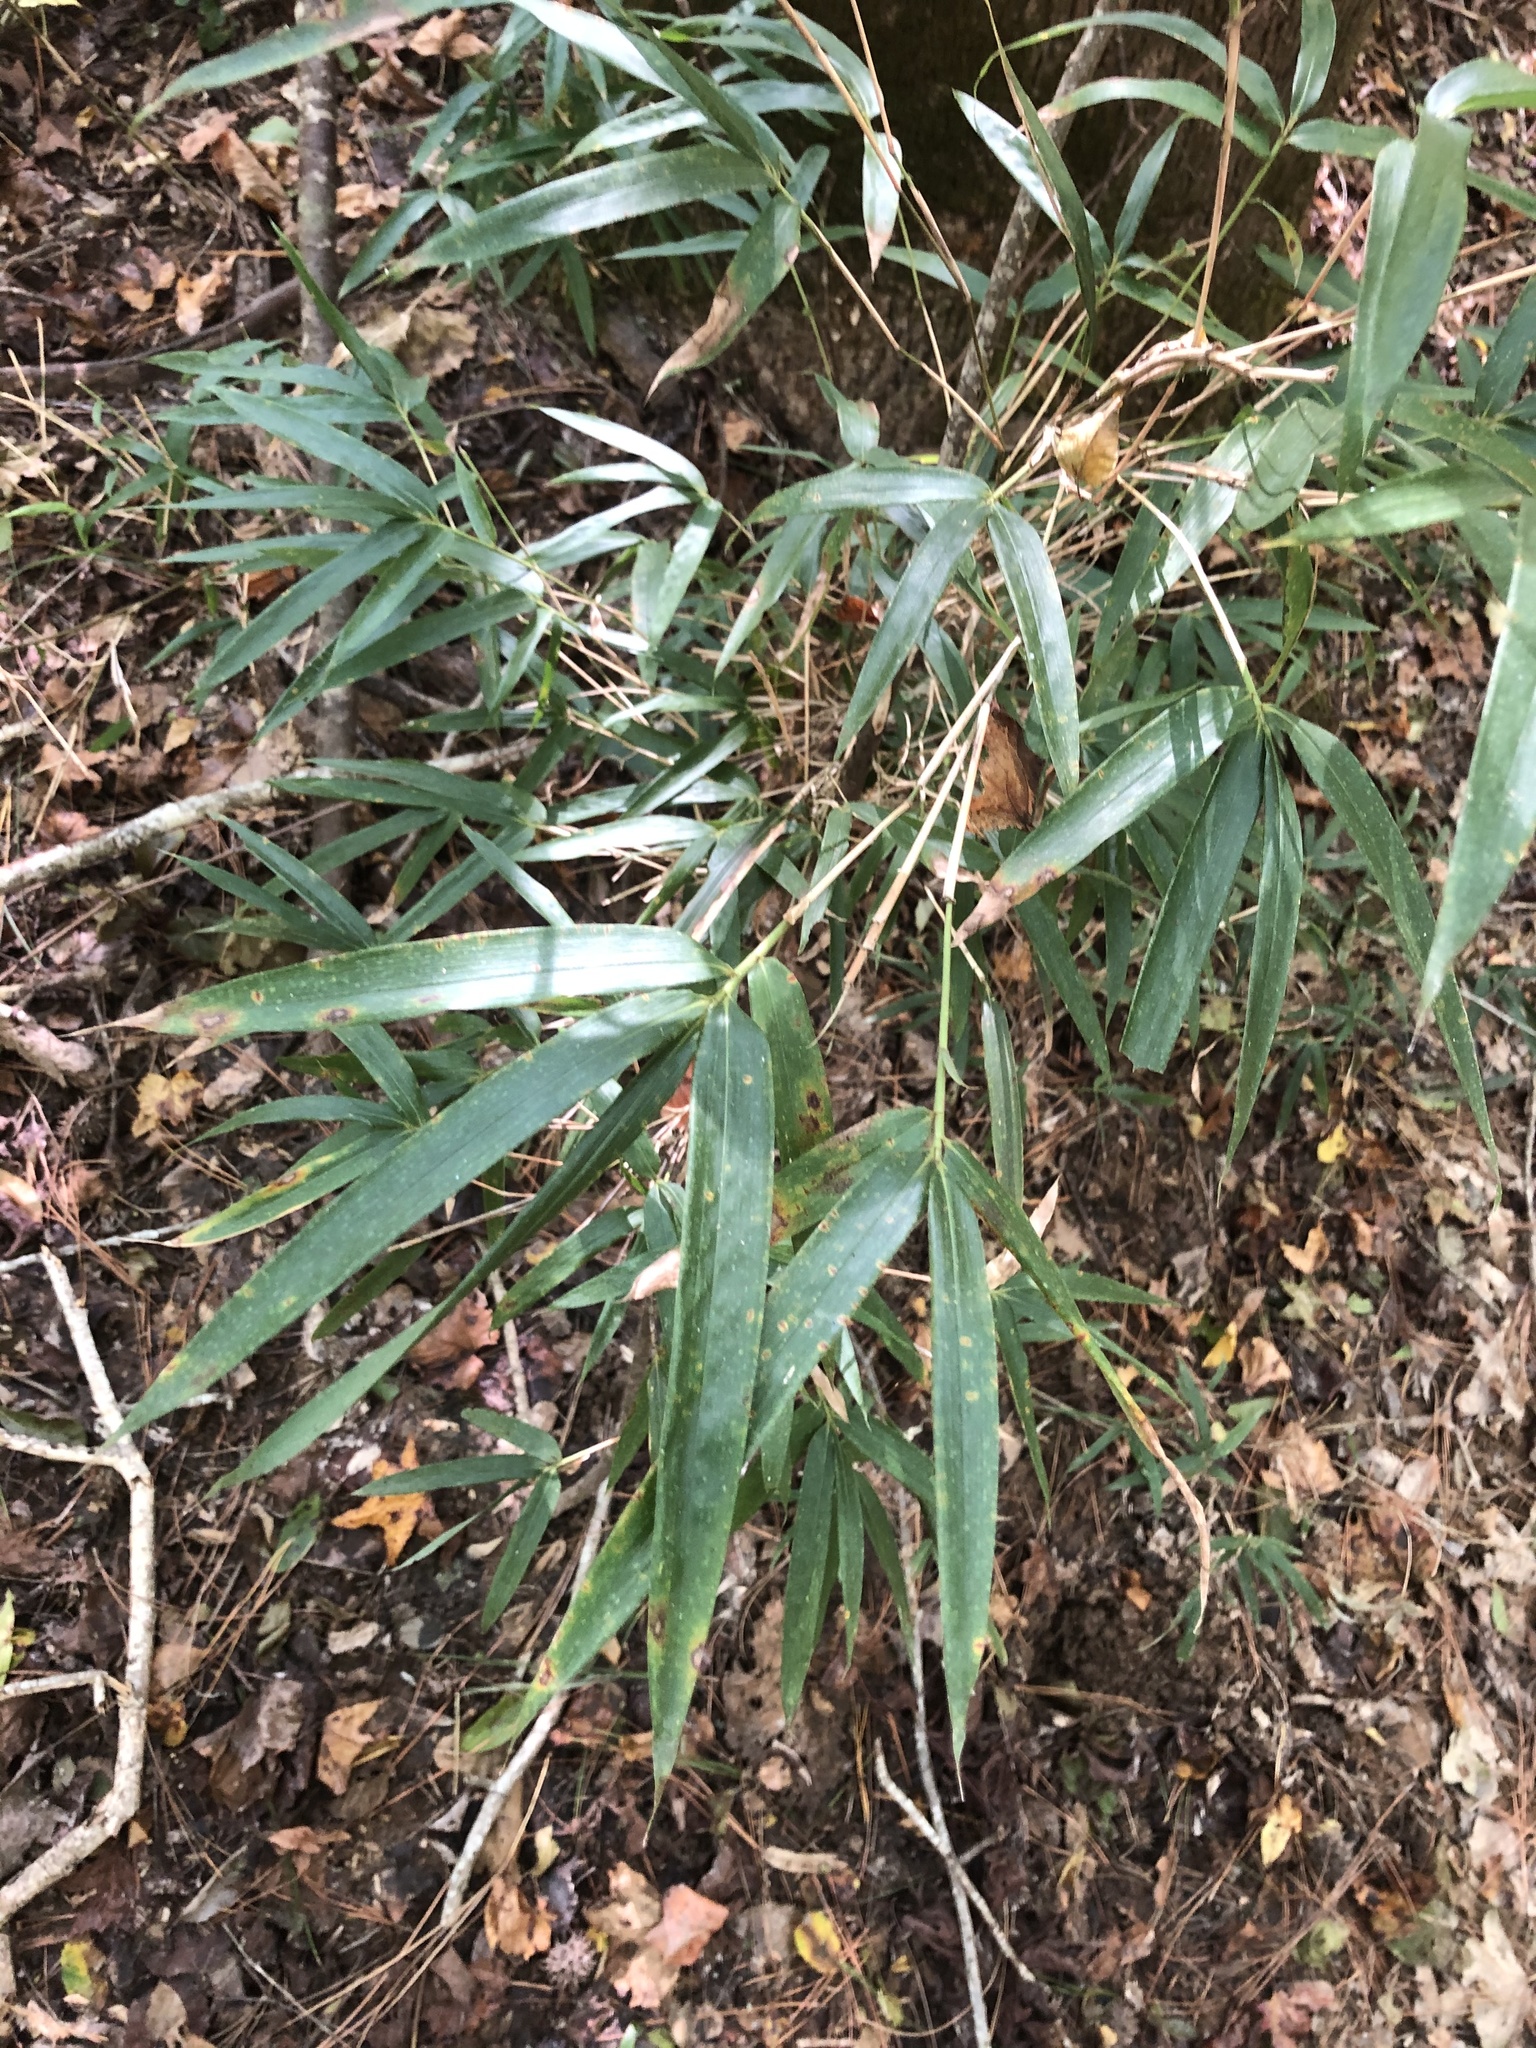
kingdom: Plantae
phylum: Tracheophyta
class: Liliopsida
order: Poales
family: Poaceae
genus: Arundinaria
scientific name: Arundinaria gigantea
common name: Giant cane
